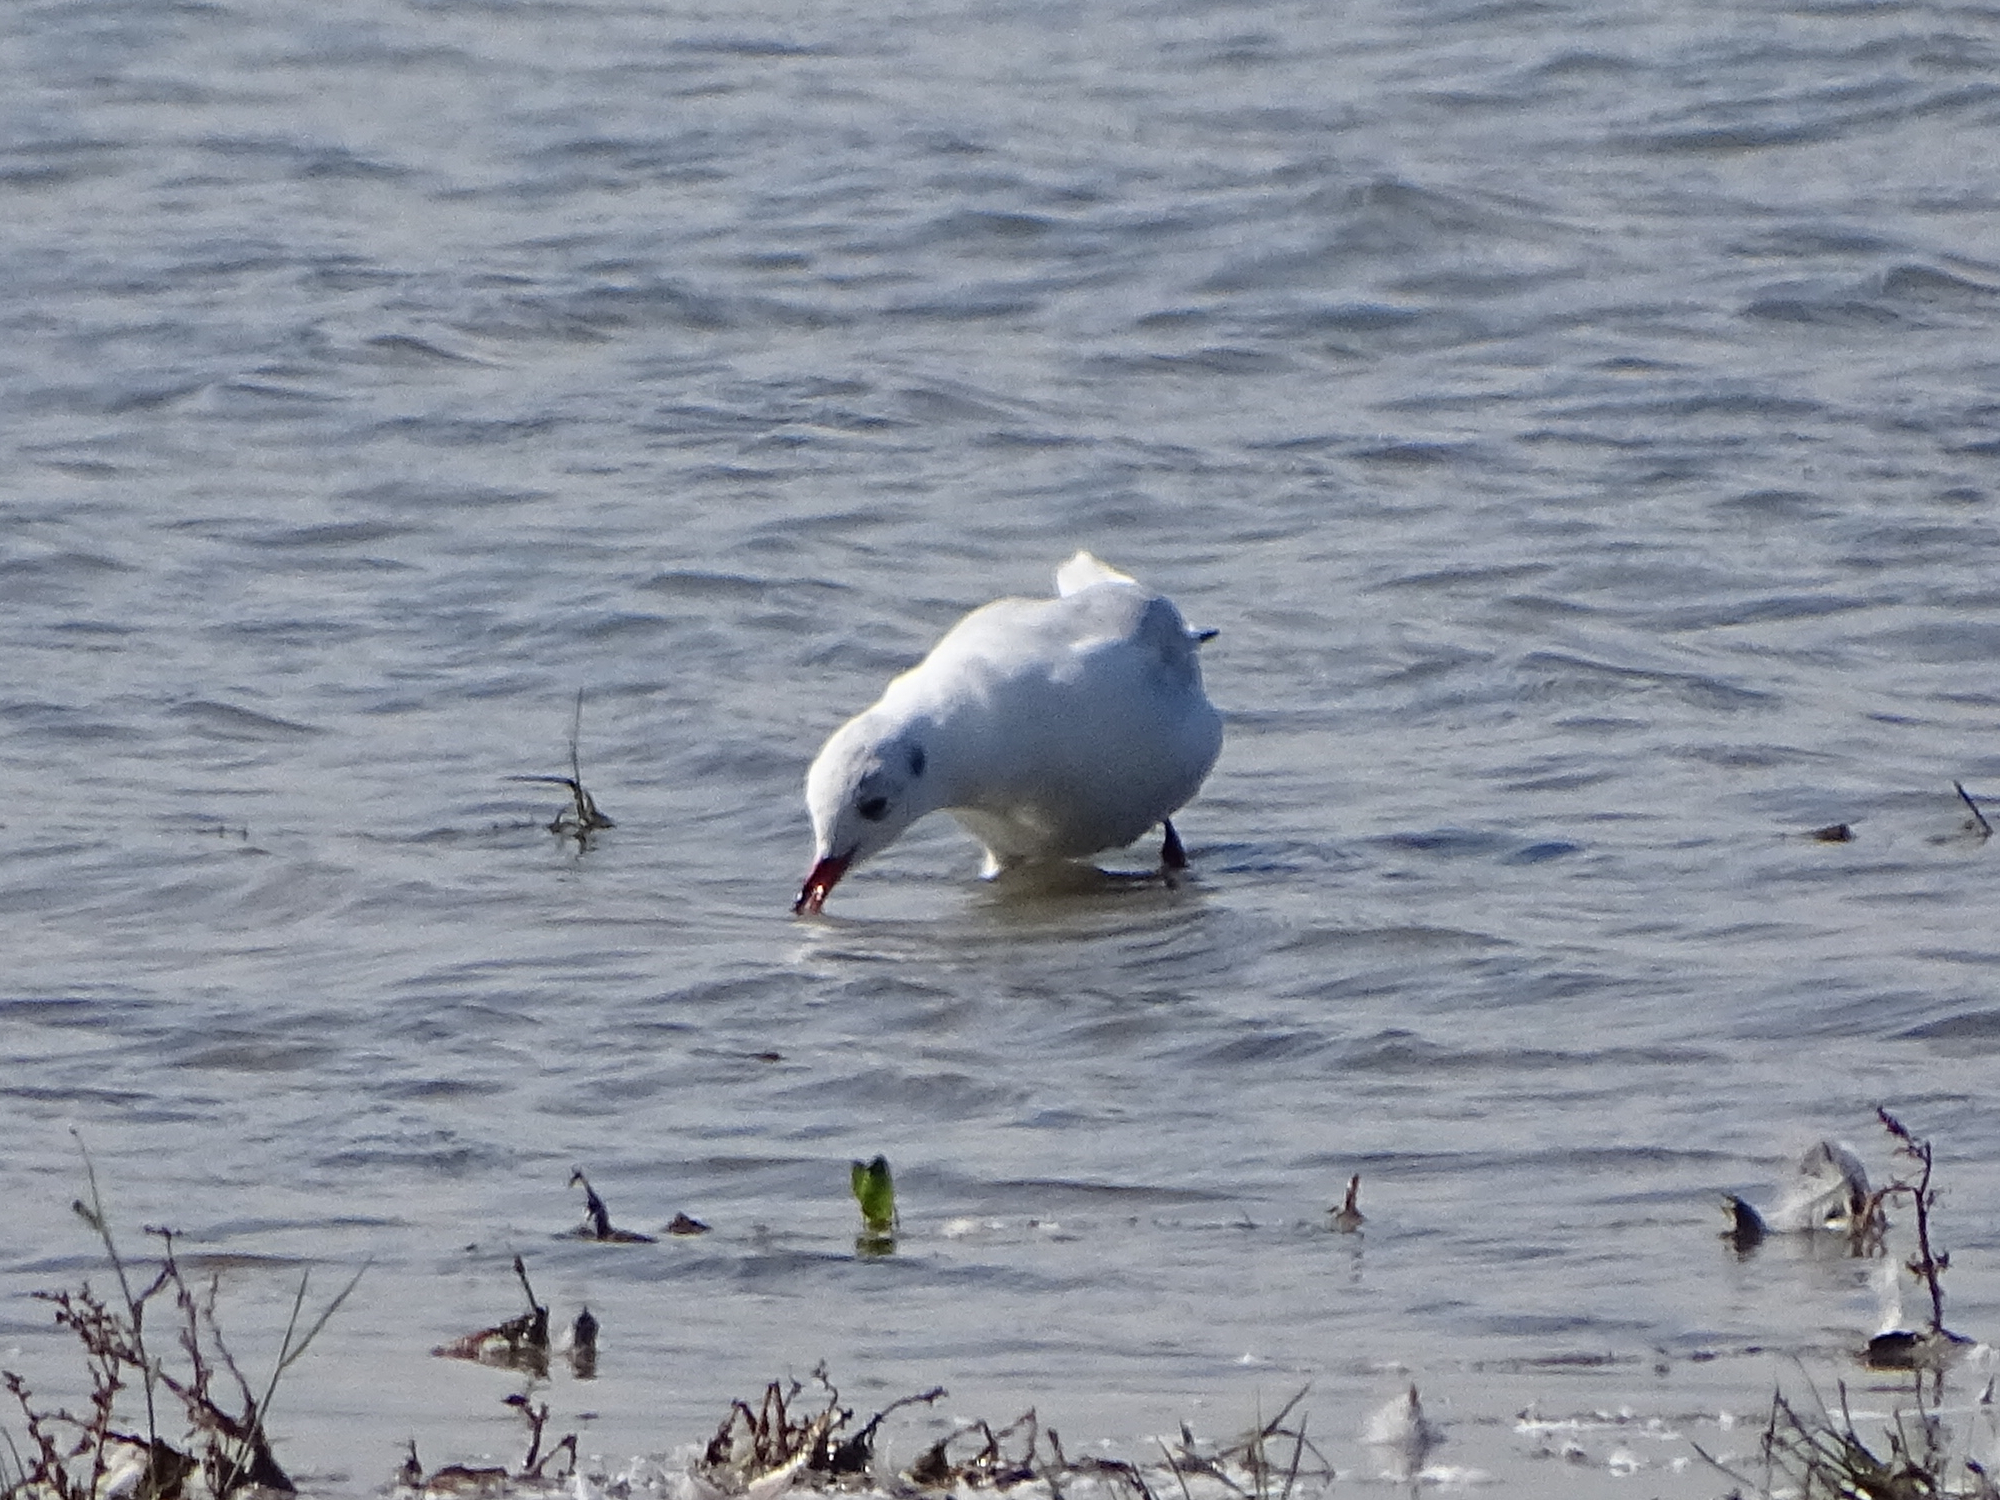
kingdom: Animalia
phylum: Chordata
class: Aves
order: Charadriiformes
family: Laridae
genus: Chroicocephalus
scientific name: Chroicocephalus ridibundus
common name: Black-headed gull
